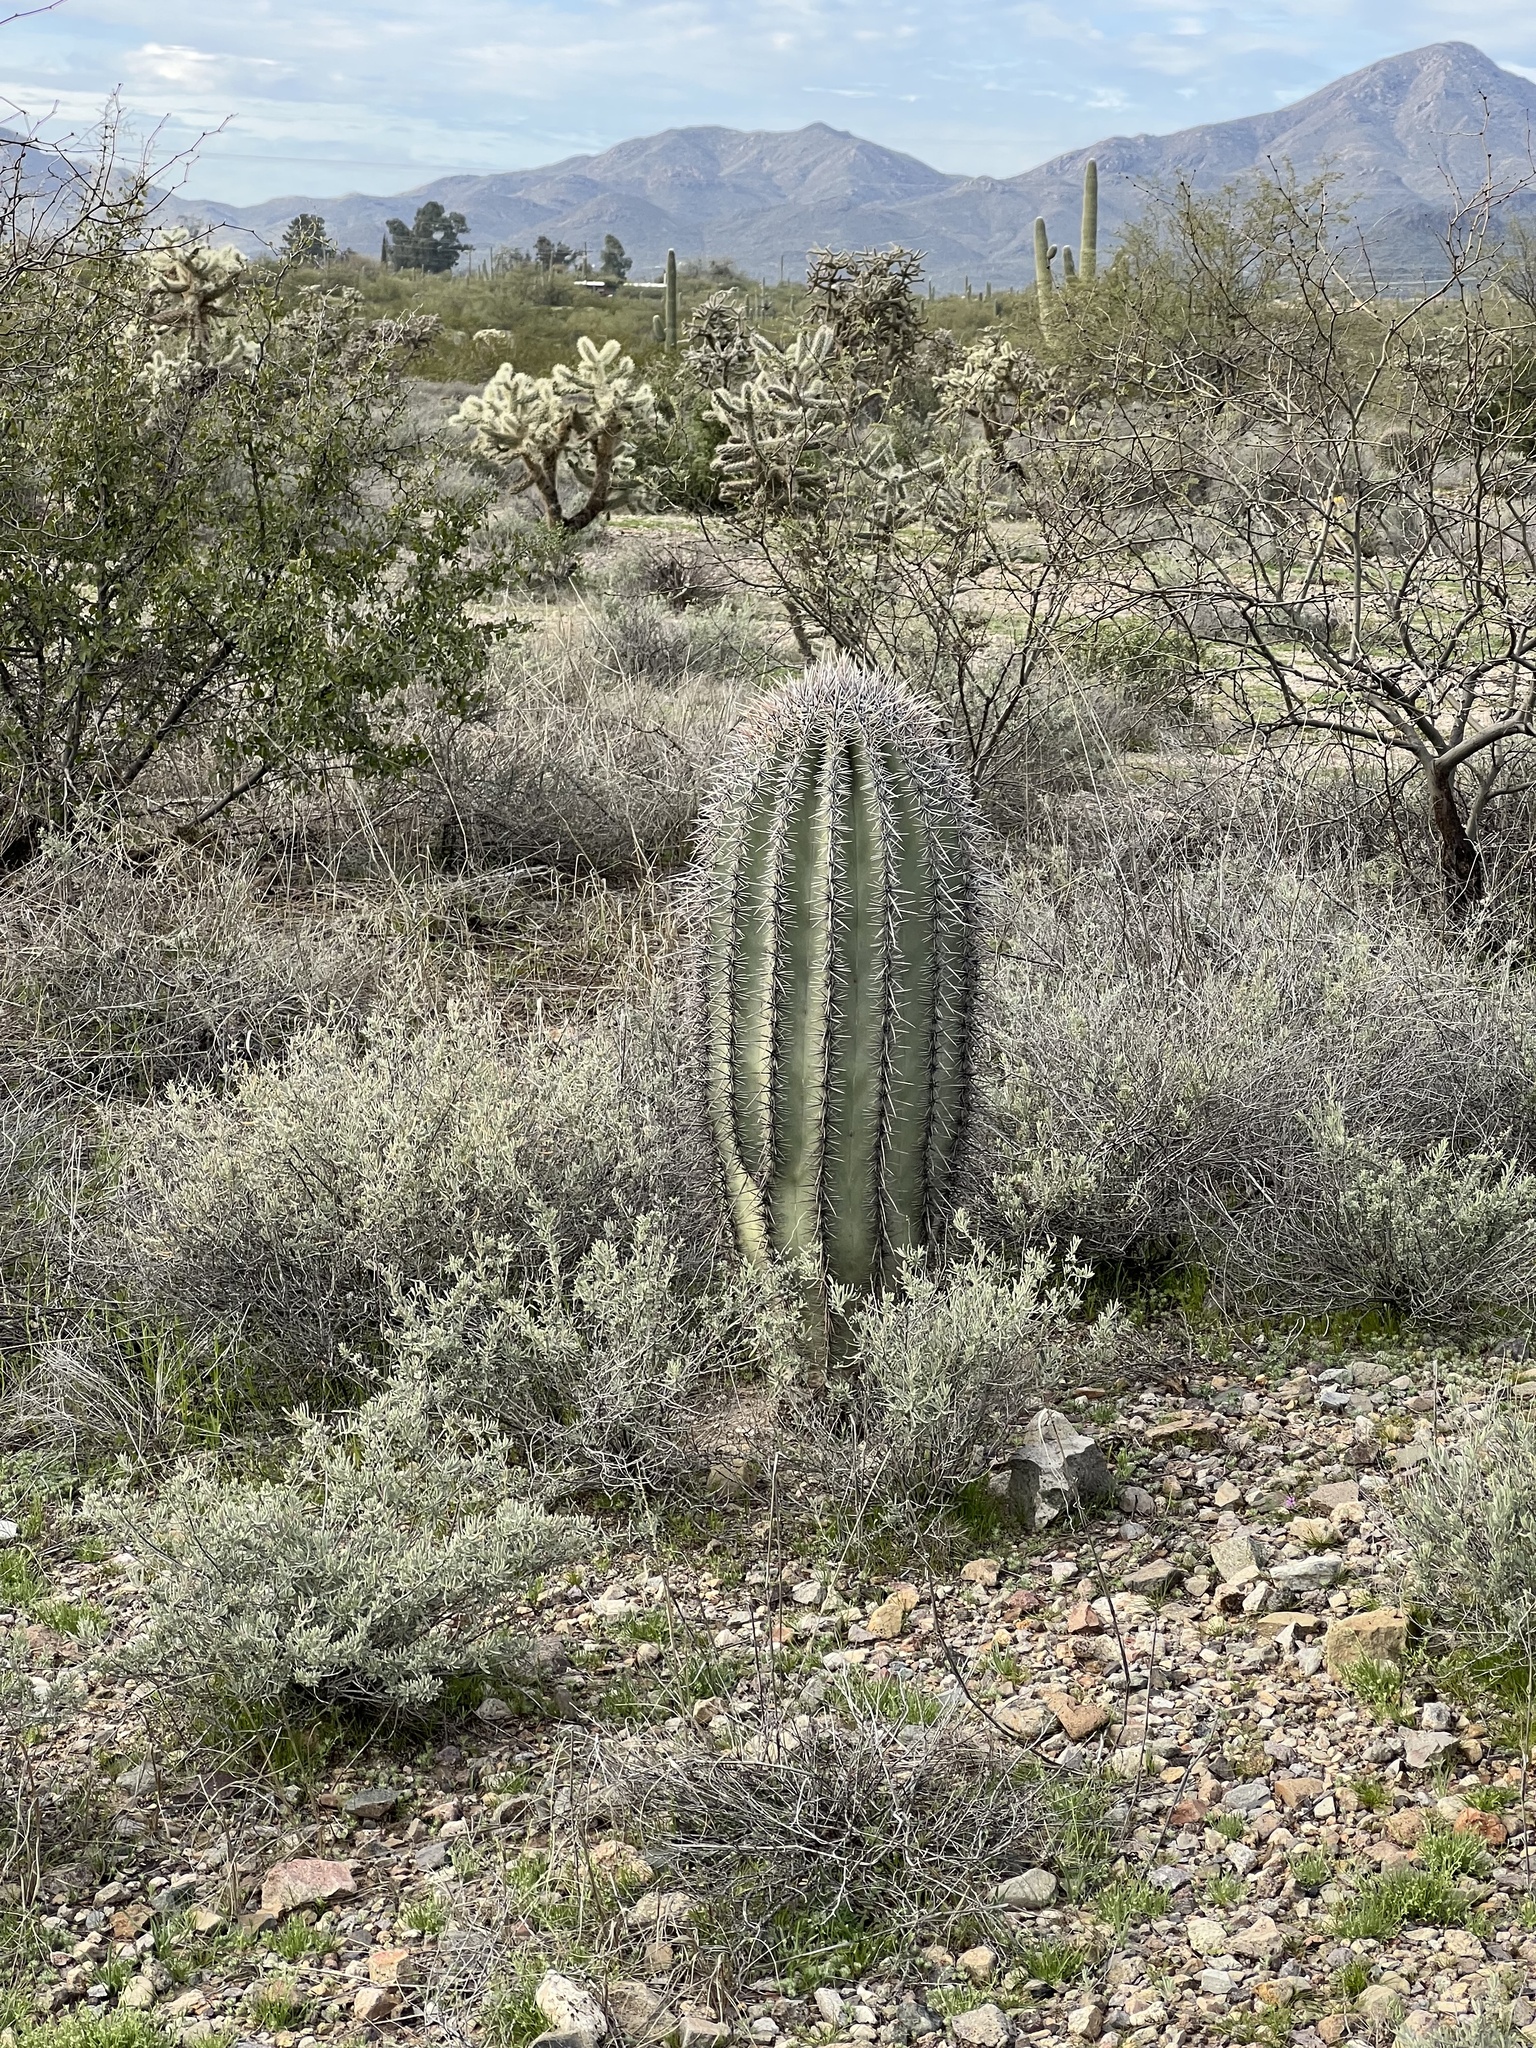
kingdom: Plantae
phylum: Tracheophyta
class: Magnoliopsida
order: Caryophyllales
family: Cactaceae
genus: Carnegiea
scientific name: Carnegiea gigantea
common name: Saguaro
